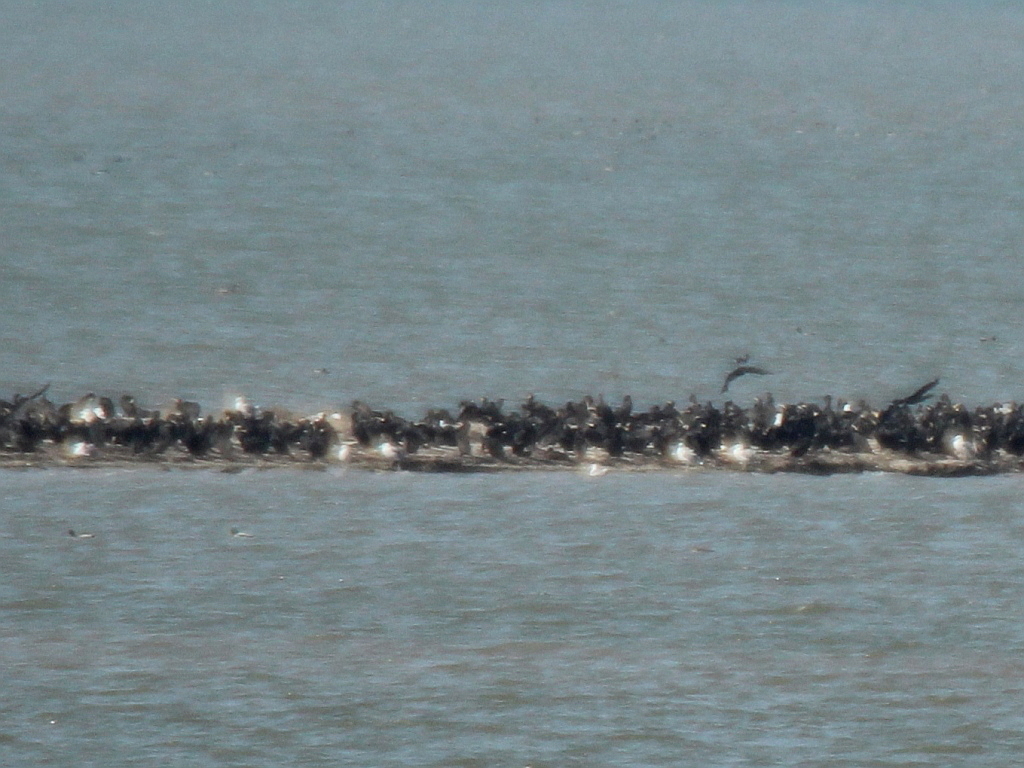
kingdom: Animalia
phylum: Chordata
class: Aves
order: Suliformes
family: Phalacrocoracidae
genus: Phalacrocorax
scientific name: Phalacrocorax carbo
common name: Great cormorant
